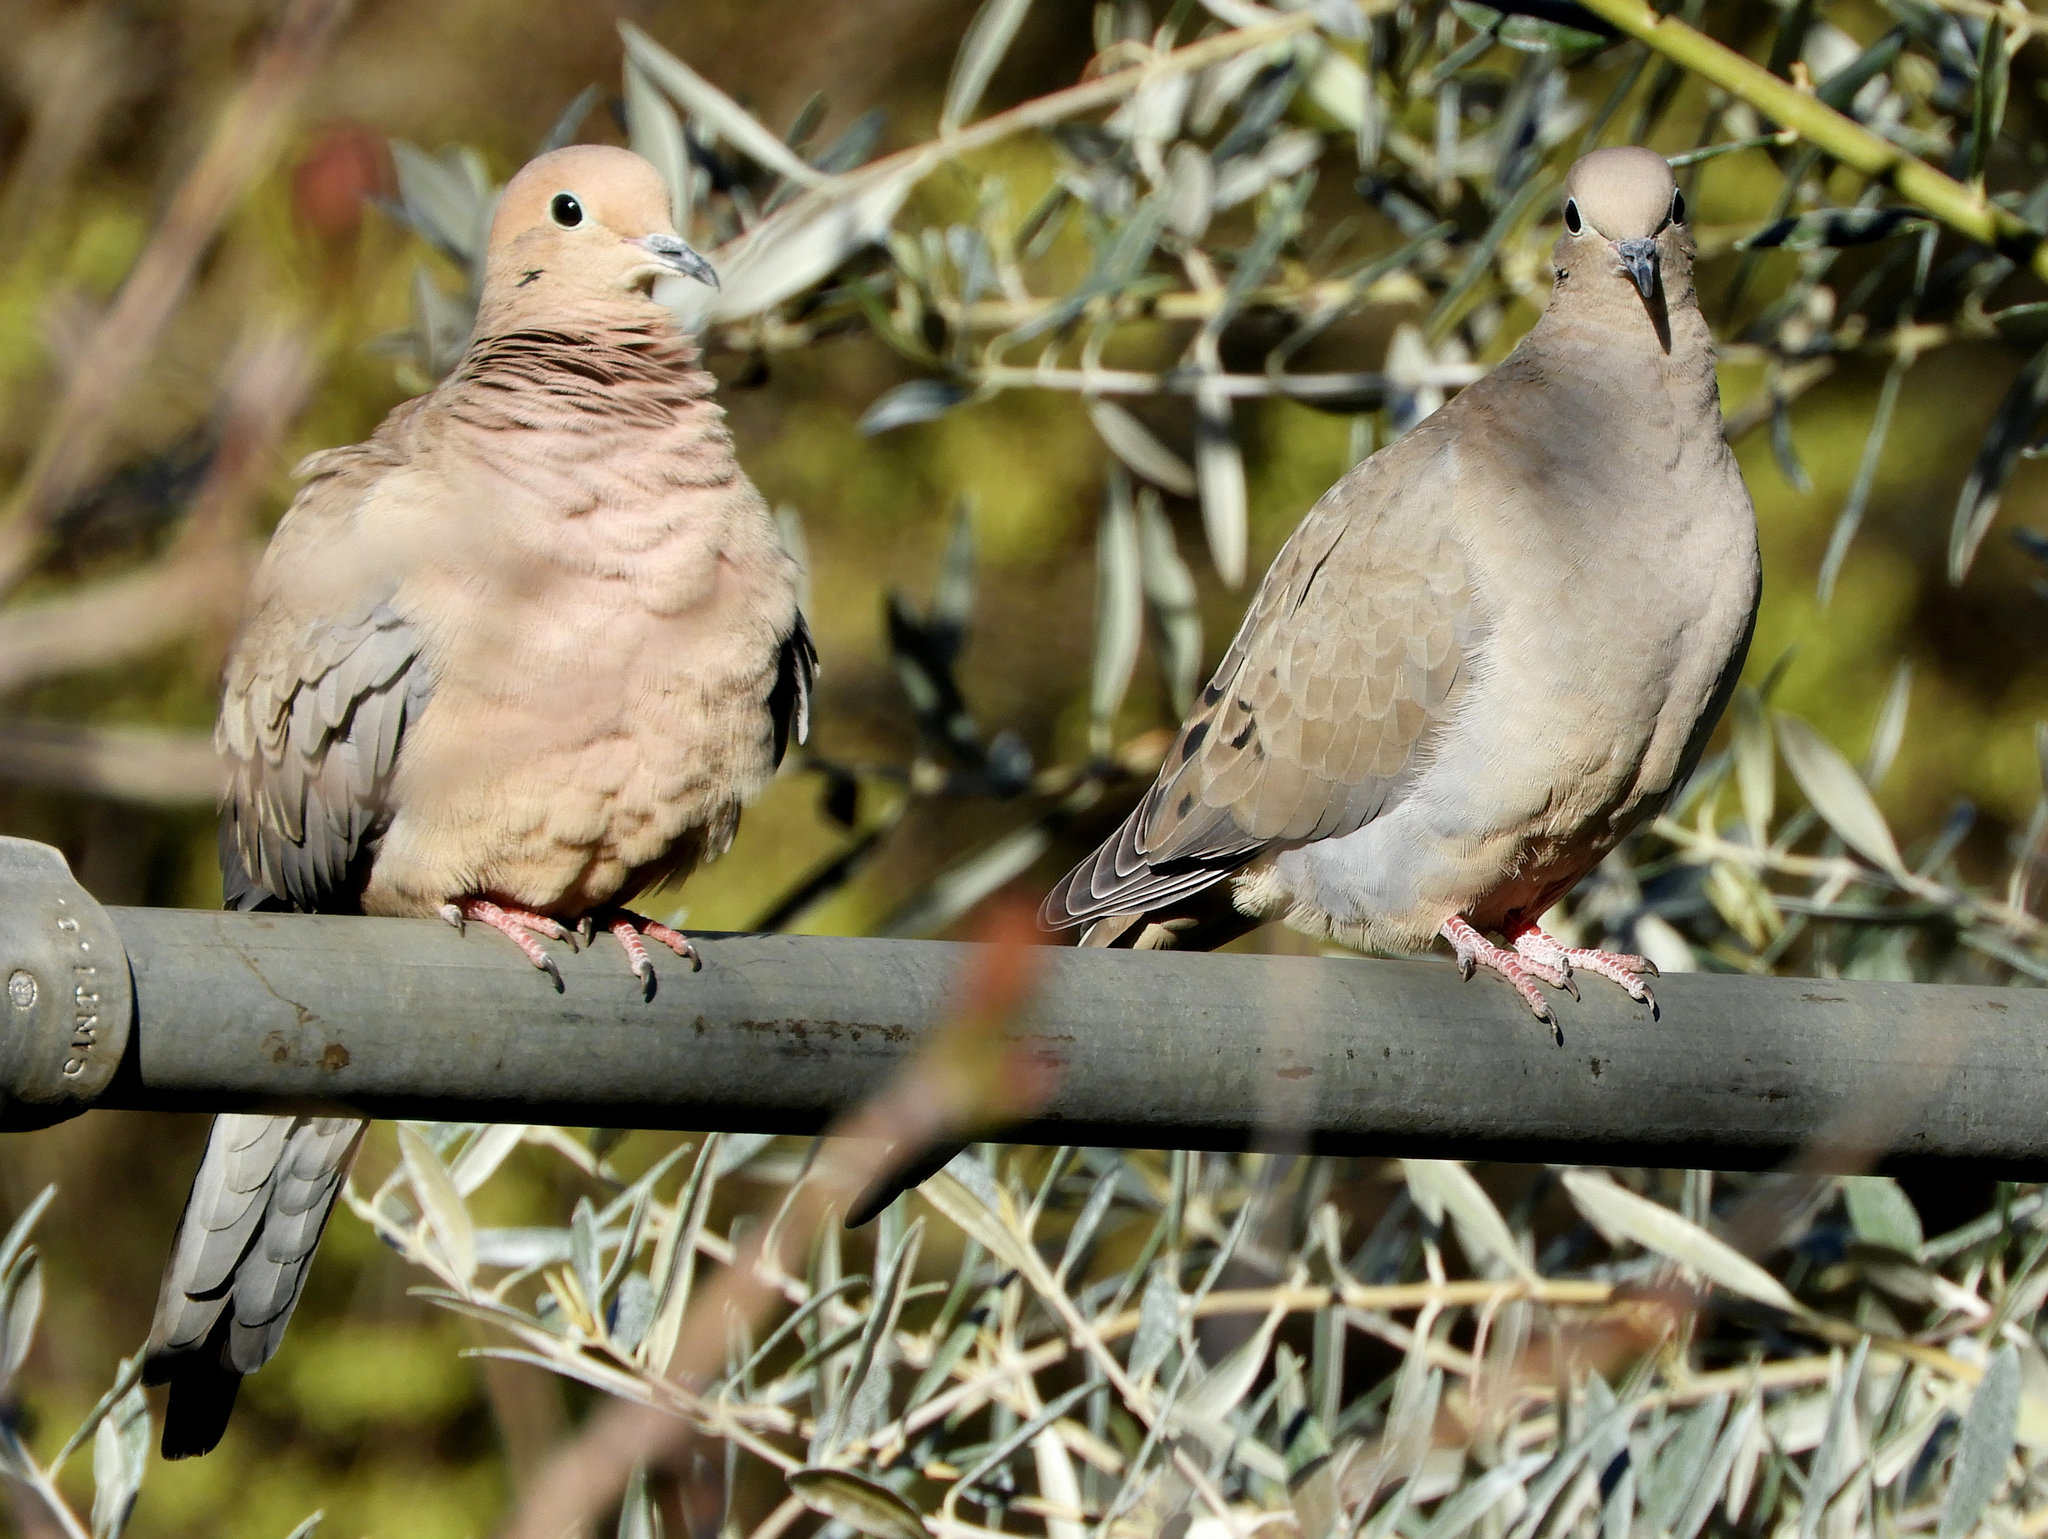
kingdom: Animalia
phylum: Chordata
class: Aves
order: Columbiformes
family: Columbidae
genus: Zenaida
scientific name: Zenaida macroura
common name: Mourning dove
